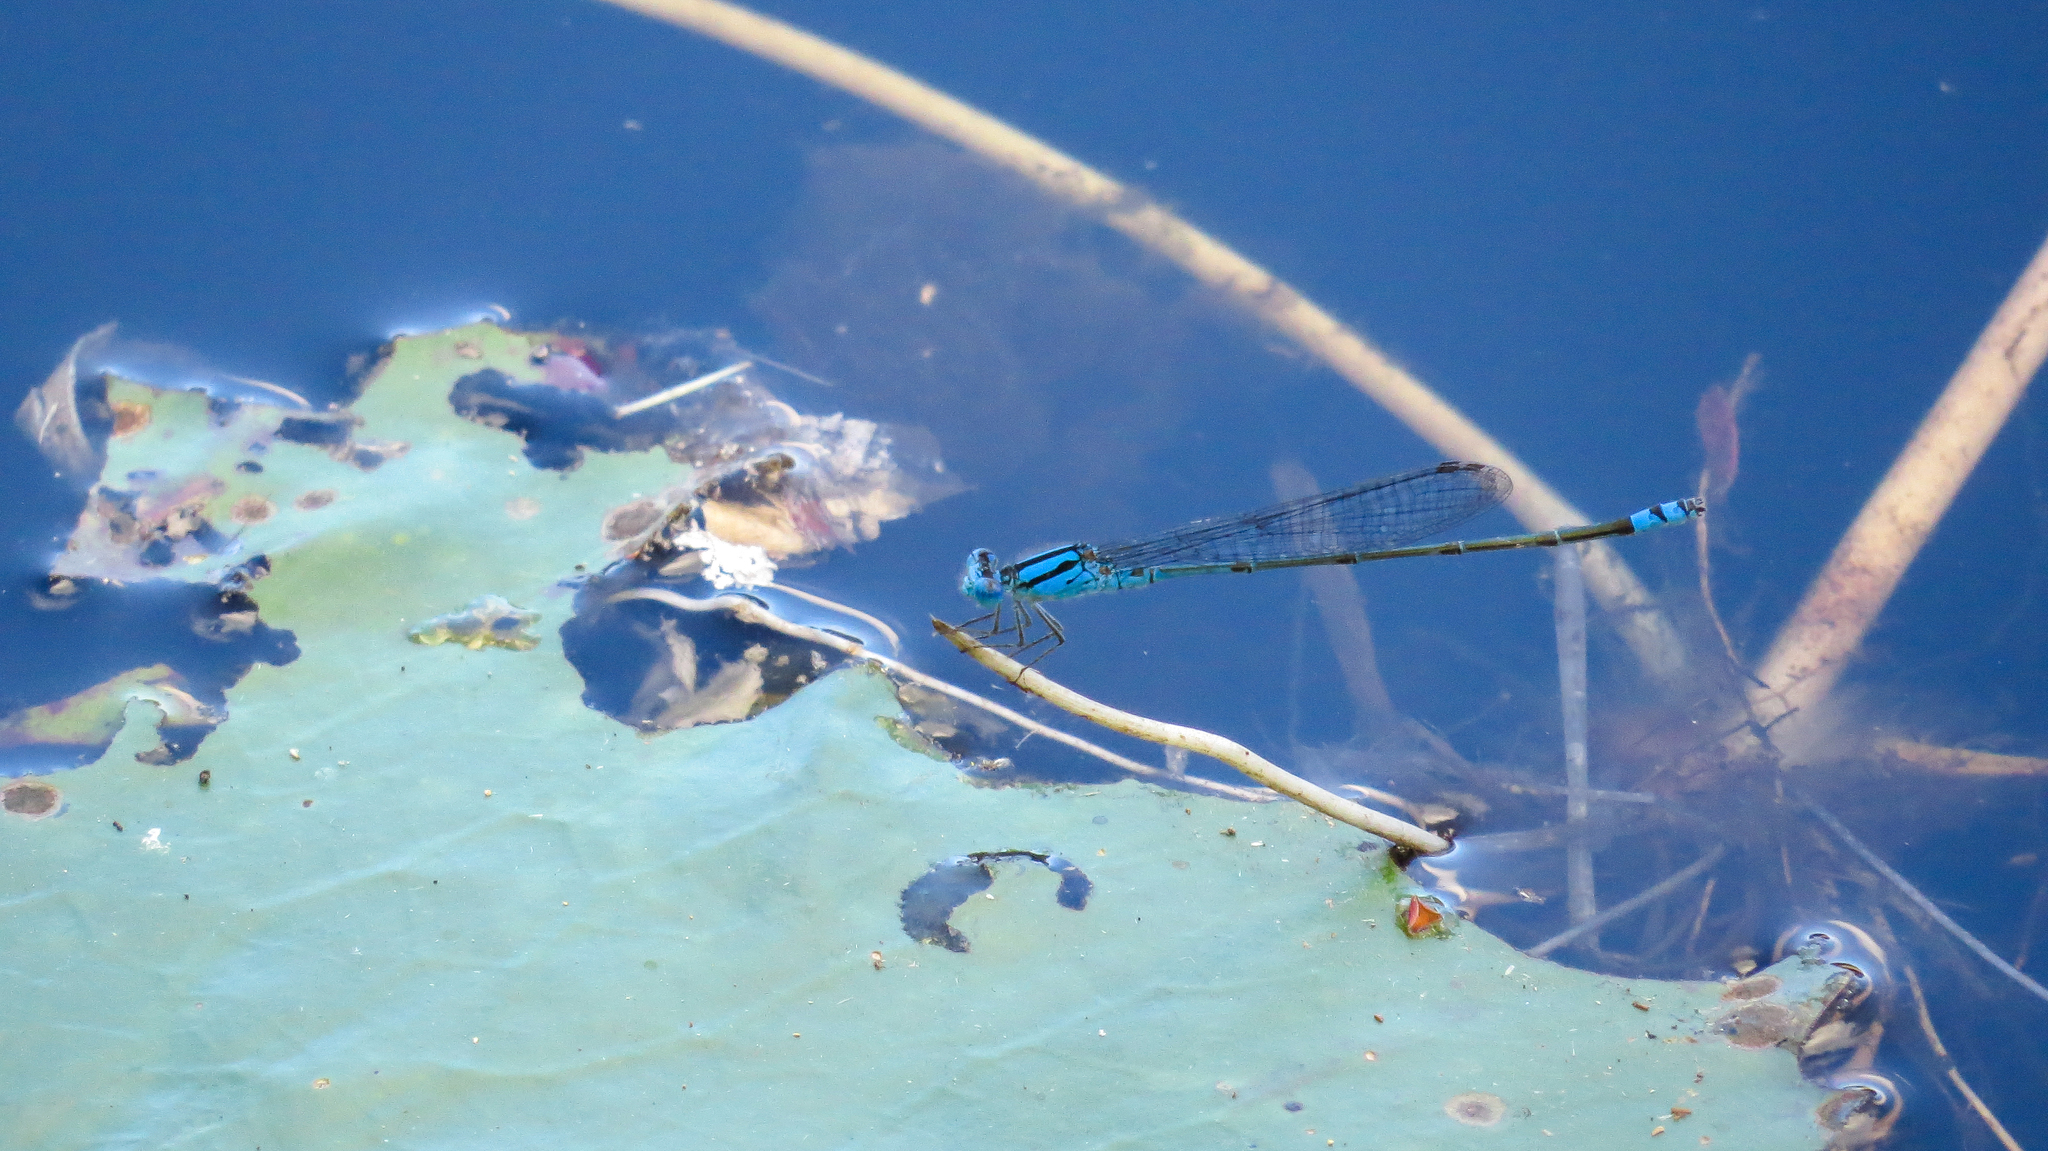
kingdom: Animalia
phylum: Arthropoda
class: Insecta
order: Odonata
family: Coenagrionidae
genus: Pseudagrion
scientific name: Pseudagrion microcephalum
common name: Blue riverdamsel
